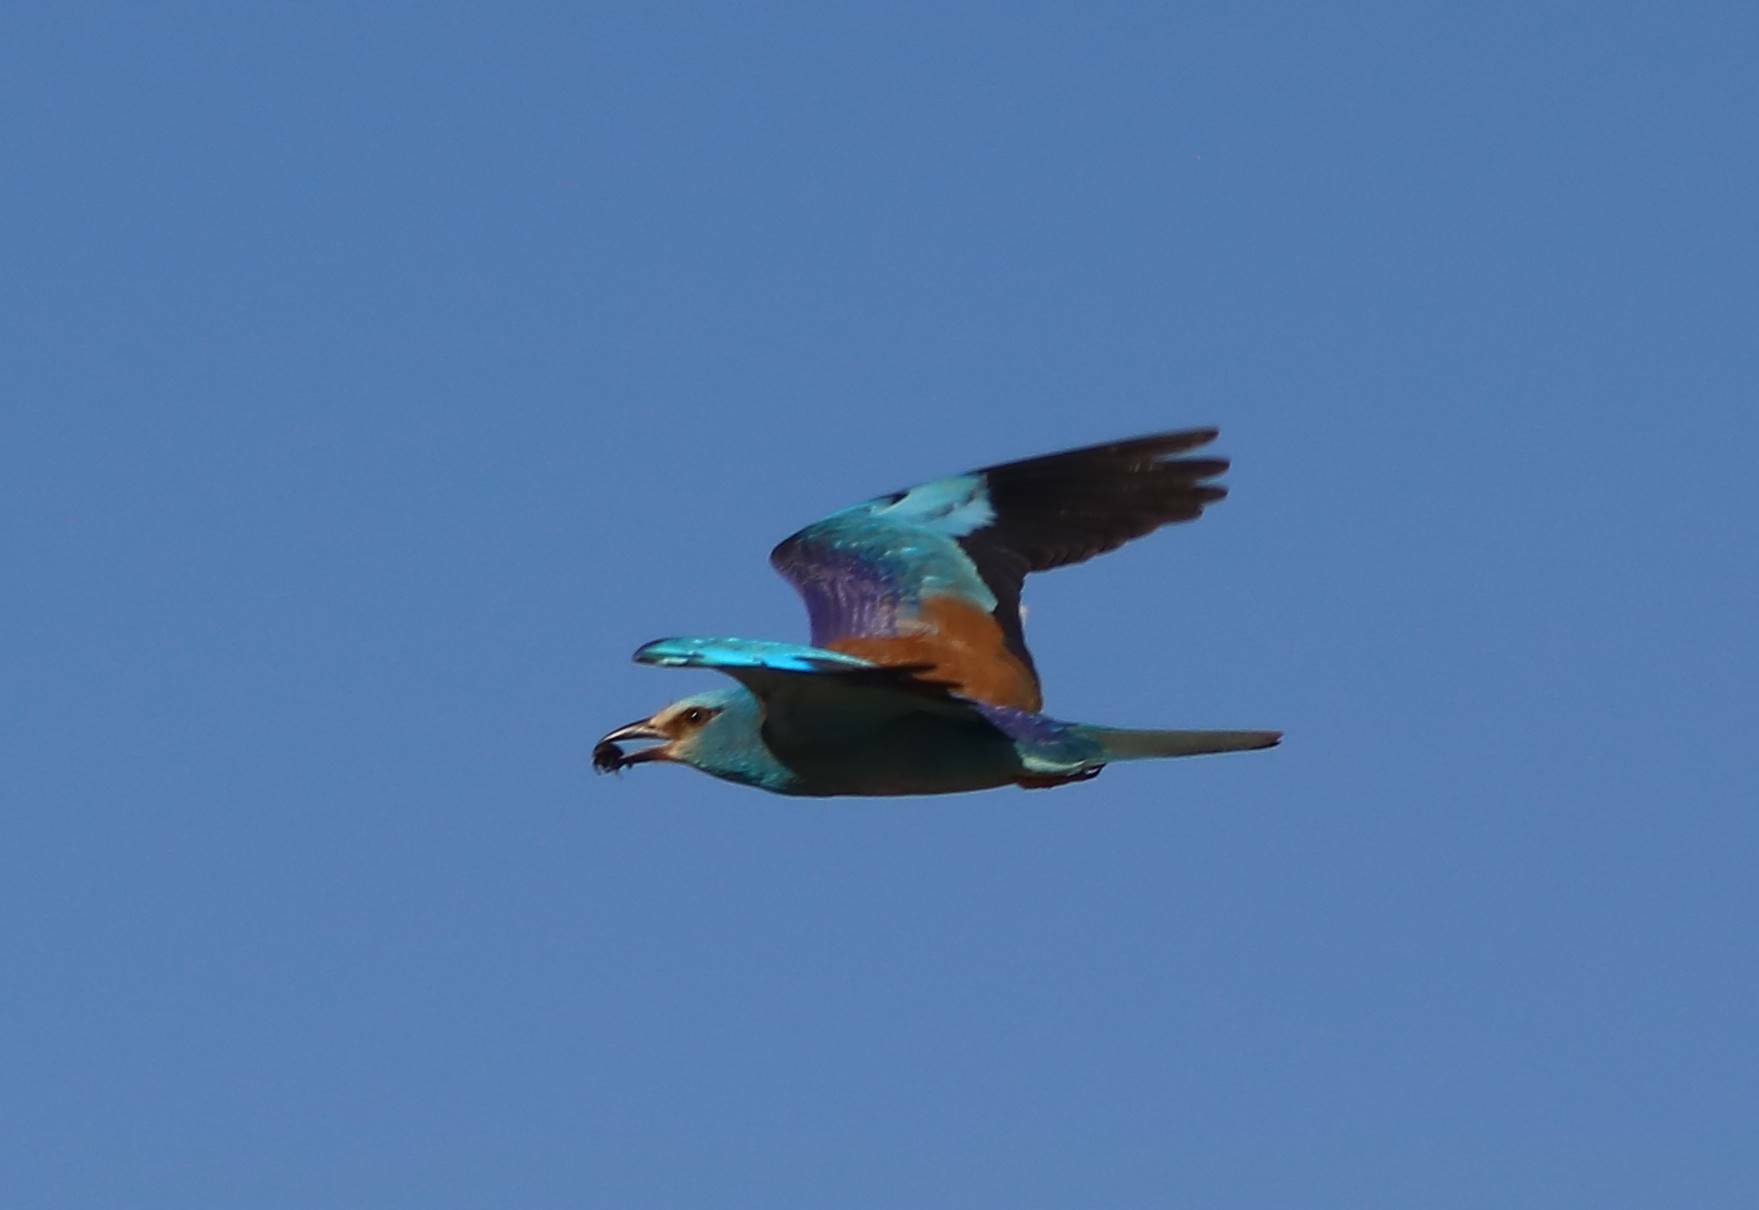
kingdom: Animalia
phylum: Chordata
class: Aves
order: Coraciiformes
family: Coraciidae
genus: Coracias
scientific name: Coracias garrulus
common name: European roller
